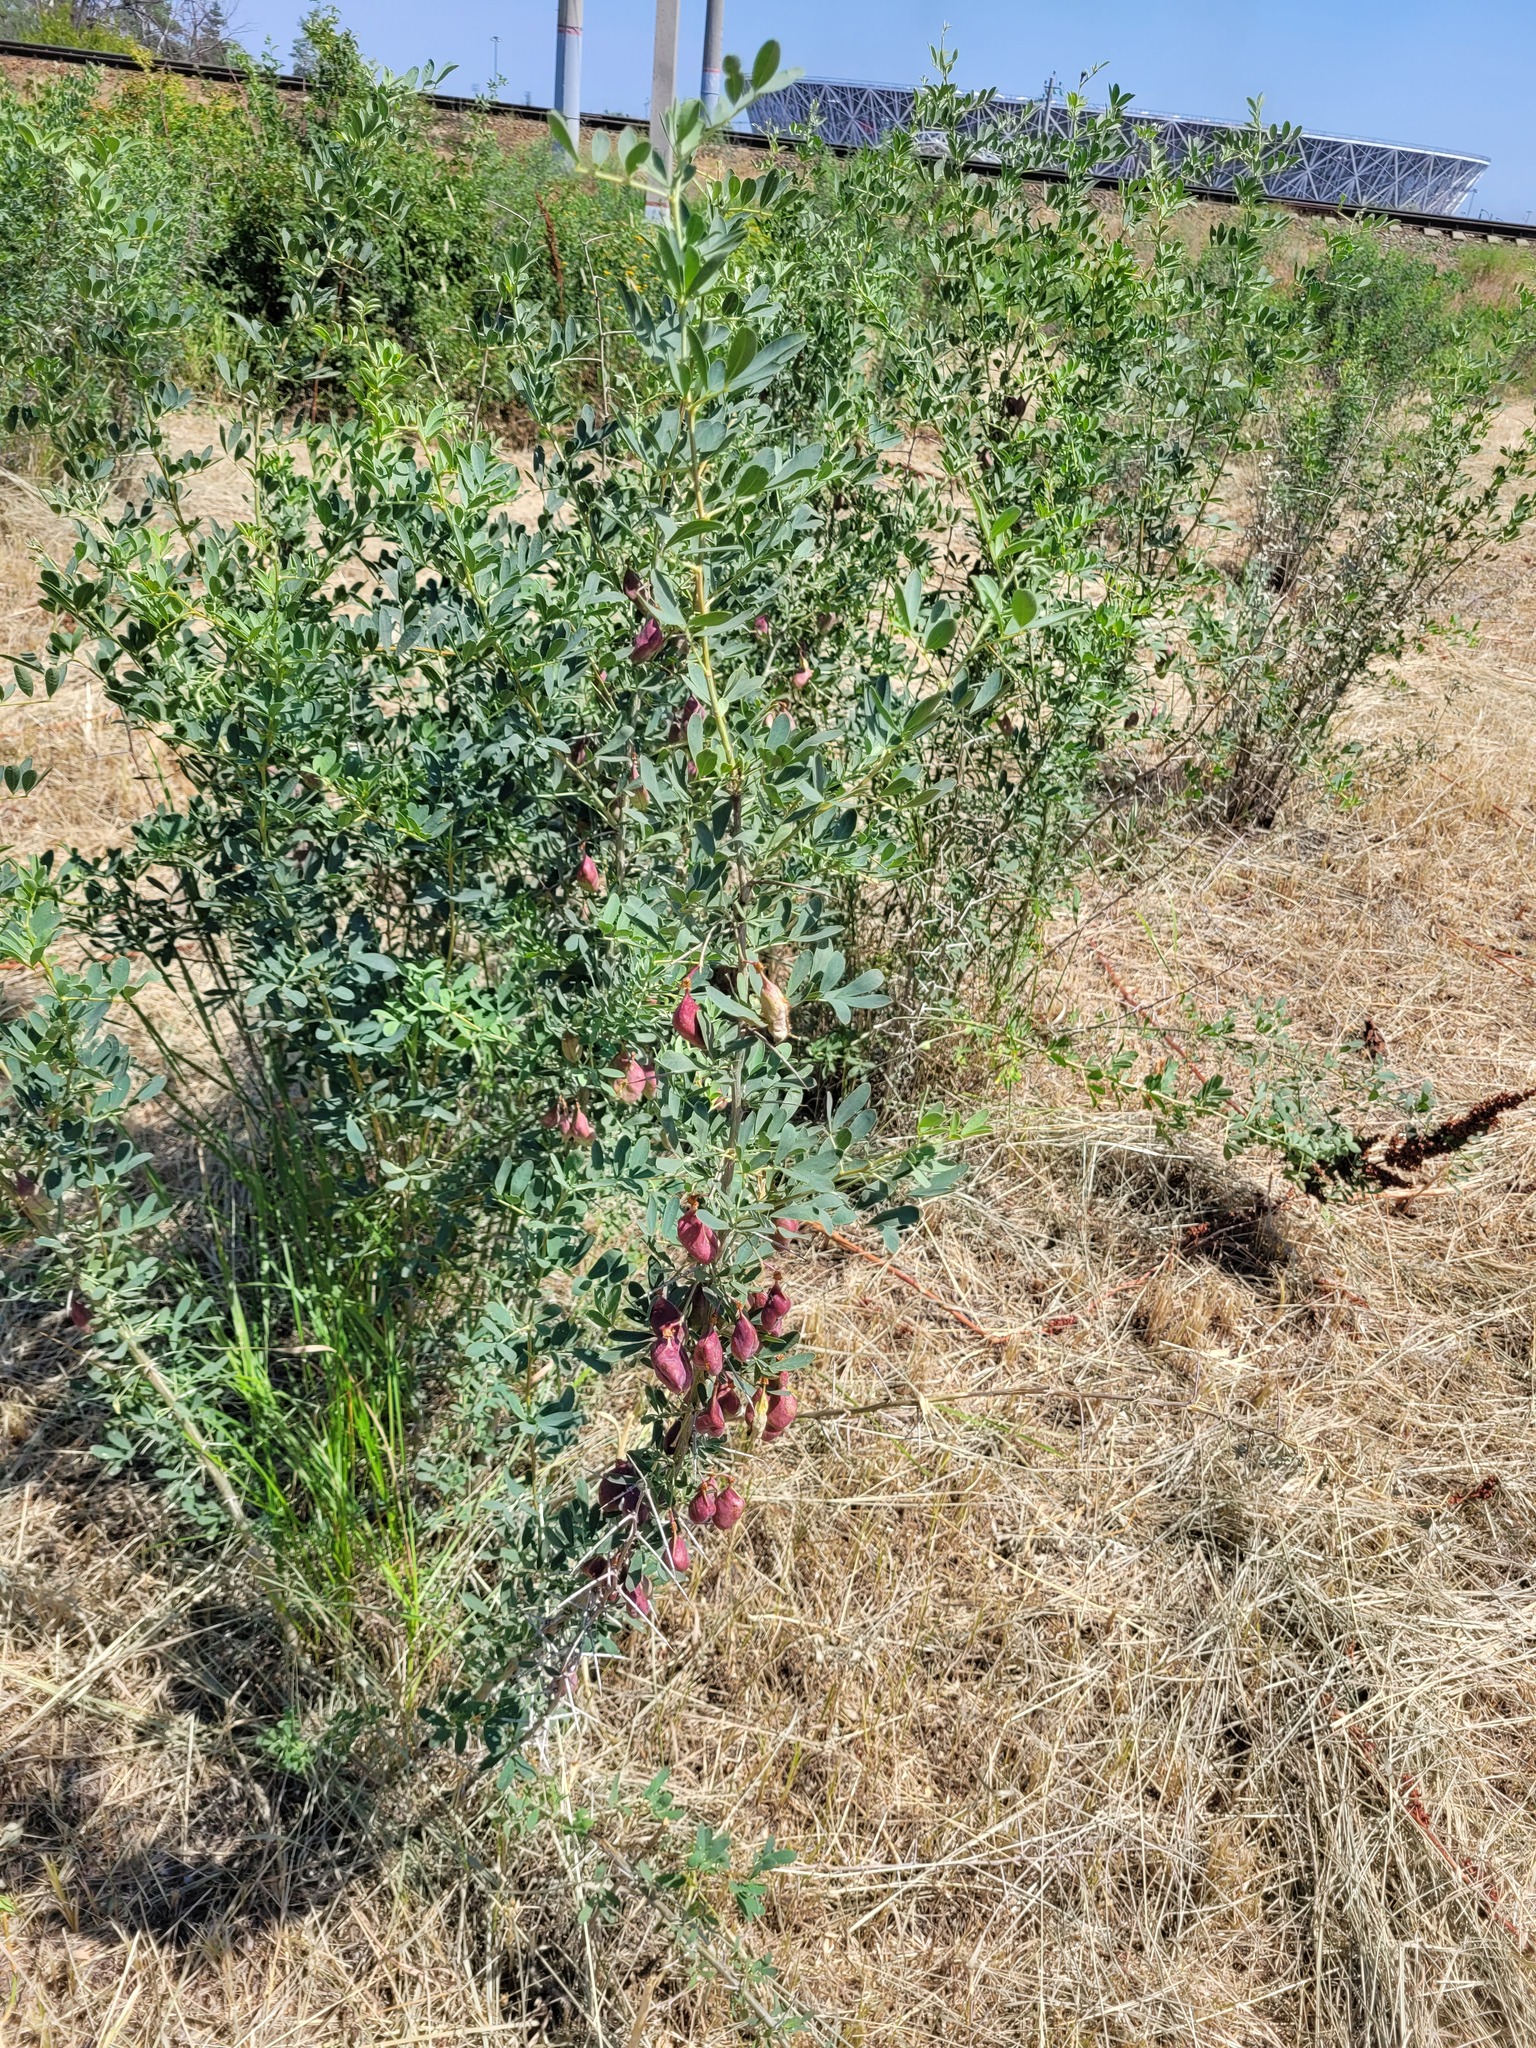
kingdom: Plantae
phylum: Tracheophyta
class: Magnoliopsida
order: Fabales
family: Fabaceae
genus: Caragana
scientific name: Caragana halodendron
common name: Siberian salt-tree
